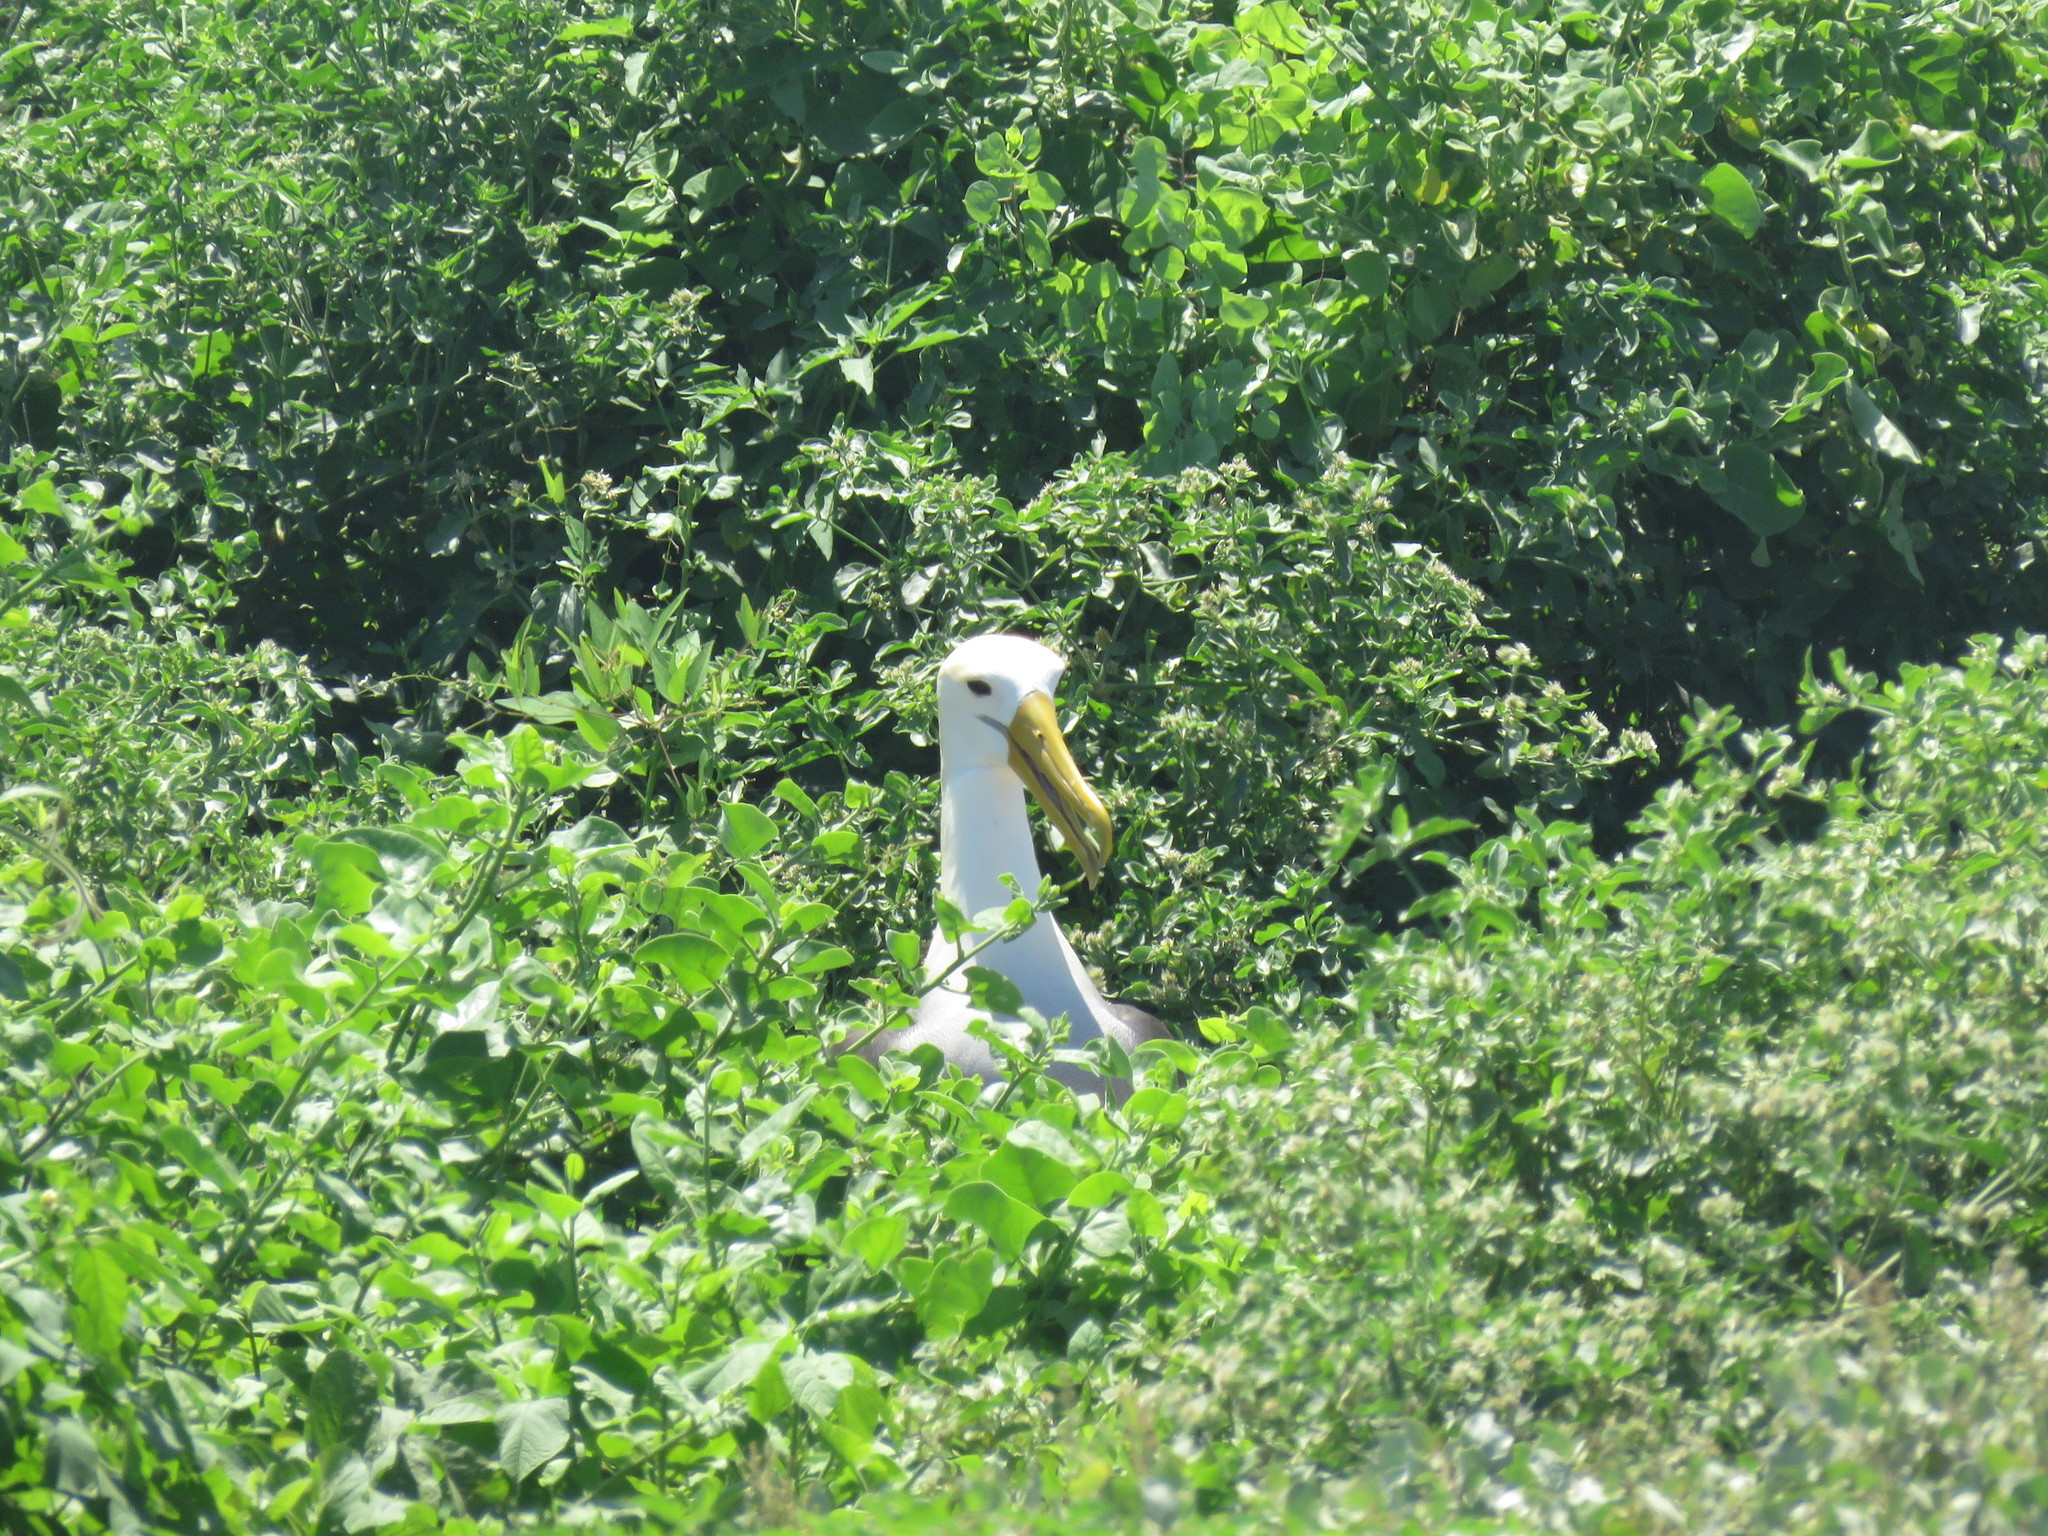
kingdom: Animalia
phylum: Chordata
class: Aves
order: Procellariiformes
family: Diomedeidae
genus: Phoebastria
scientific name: Phoebastria irrorata
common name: Waved albatross
